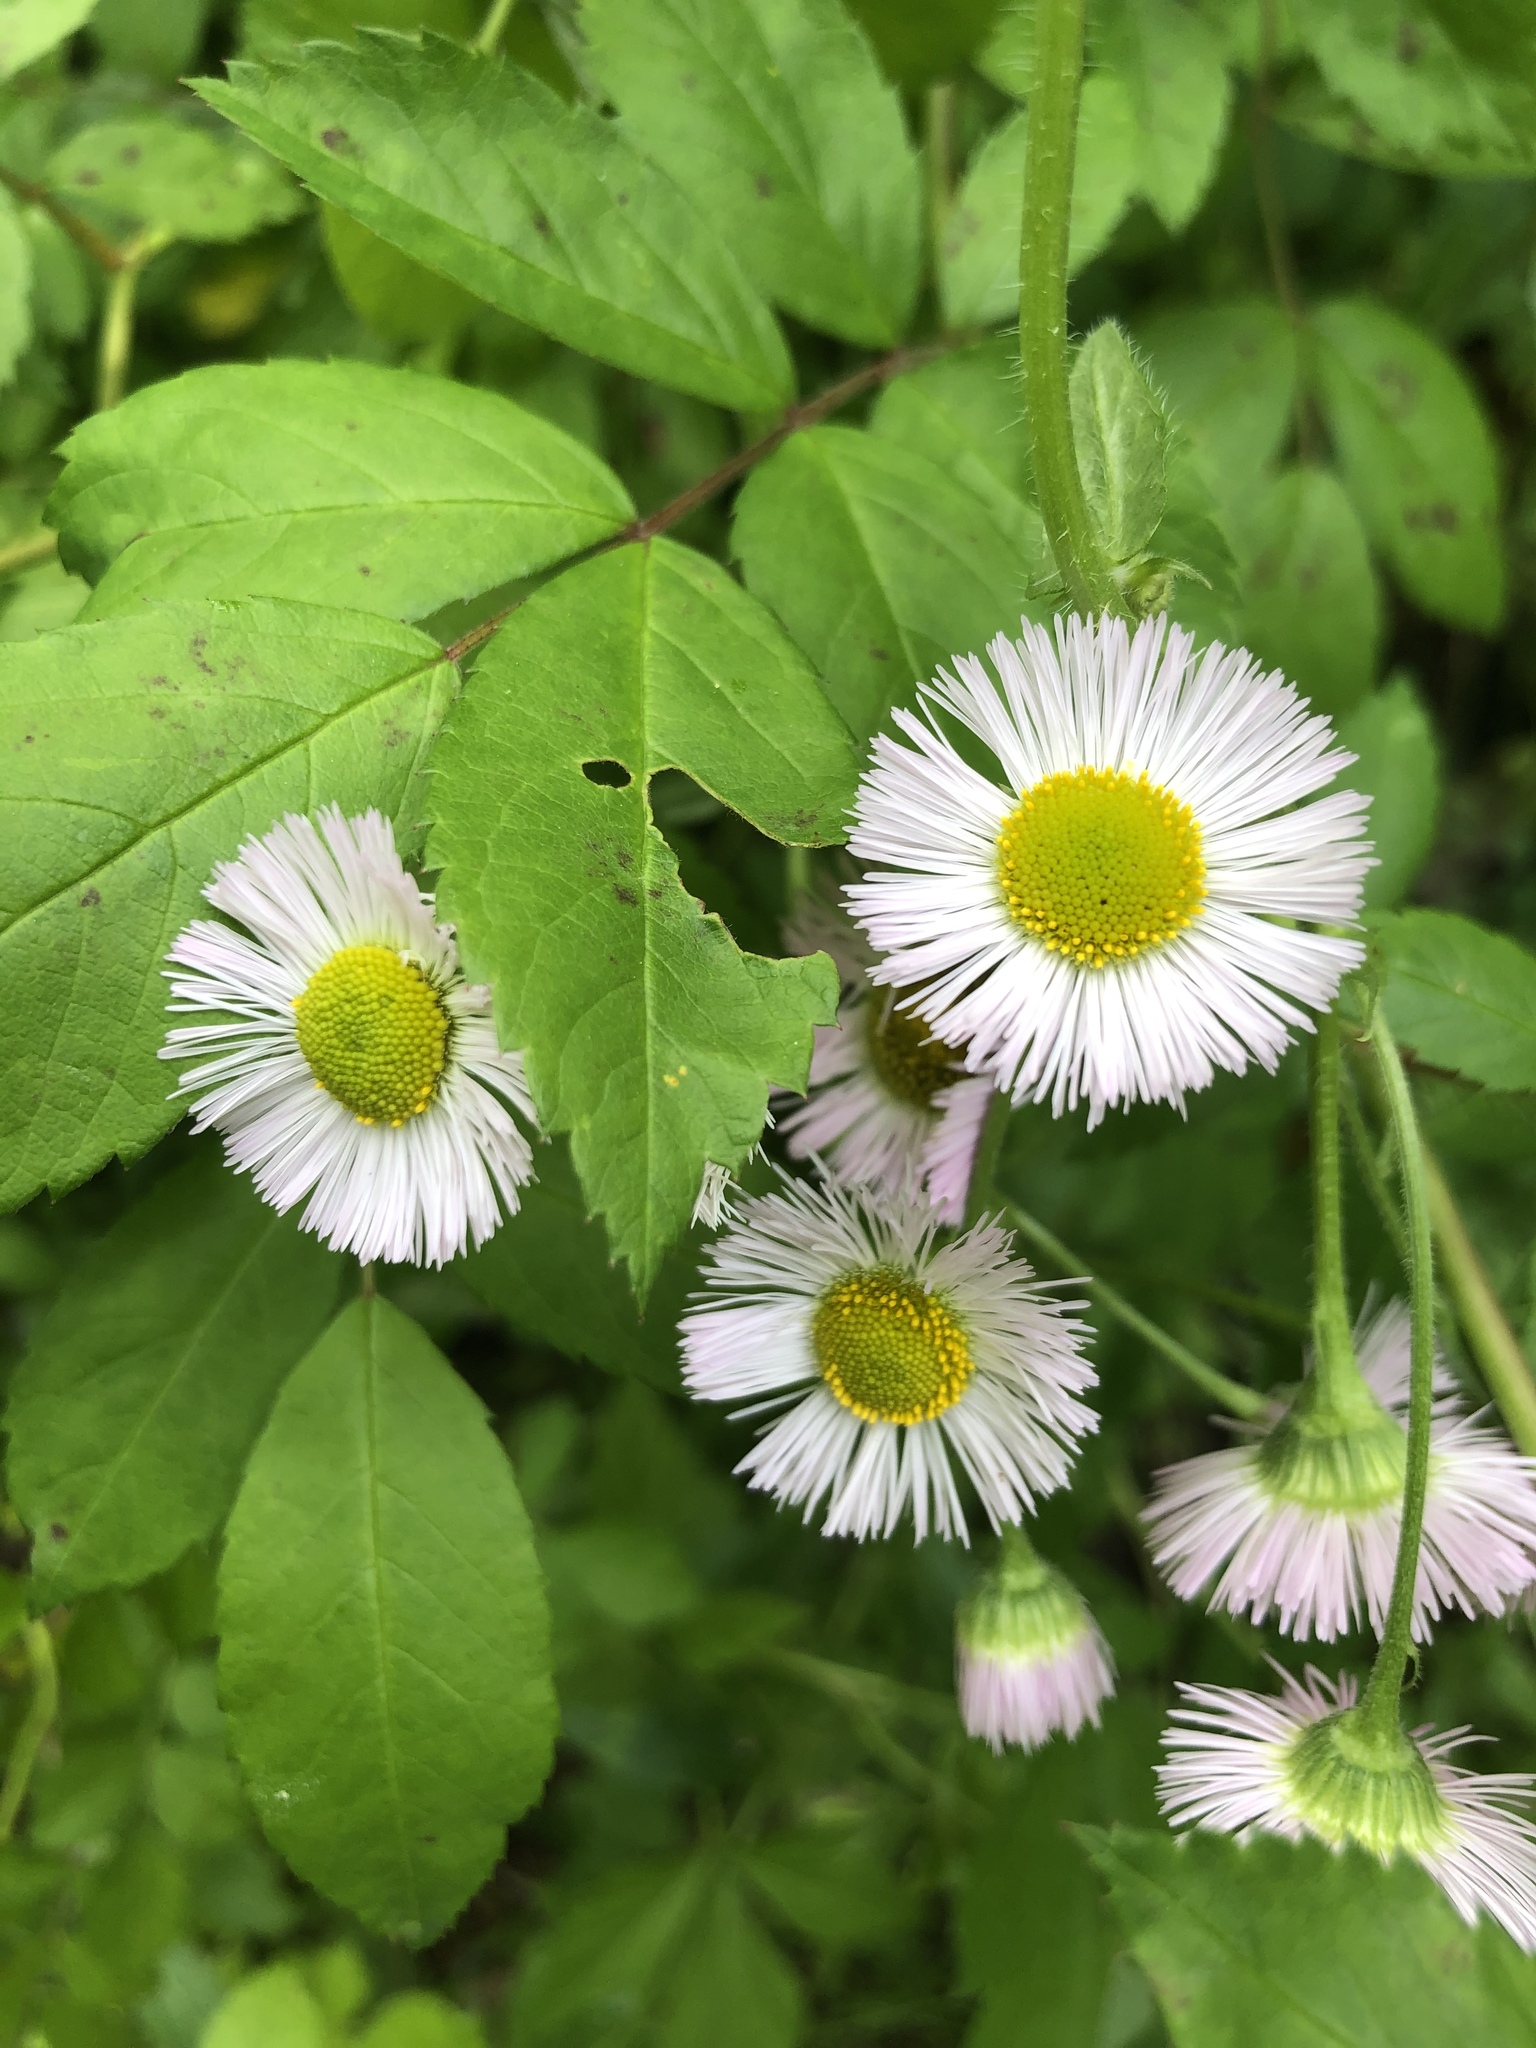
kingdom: Plantae
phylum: Tracheophyta
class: Magnoliopsida
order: Asterales
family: Asteraceae
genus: Erigeron
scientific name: Erigeron philadelphicus
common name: Robin's-plantain
